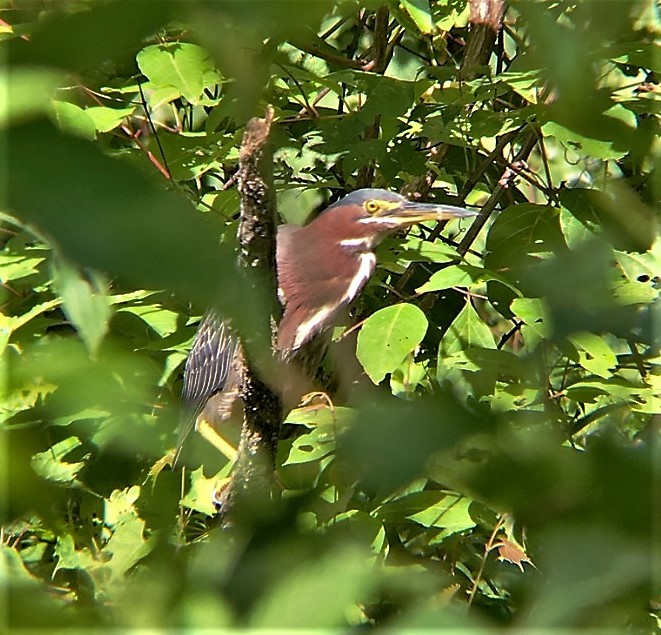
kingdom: Animalia
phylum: Chordata
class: Aves
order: Pelecaniformes
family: Ardeidae
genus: Butorides
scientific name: Butorides virescens
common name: Green heron
